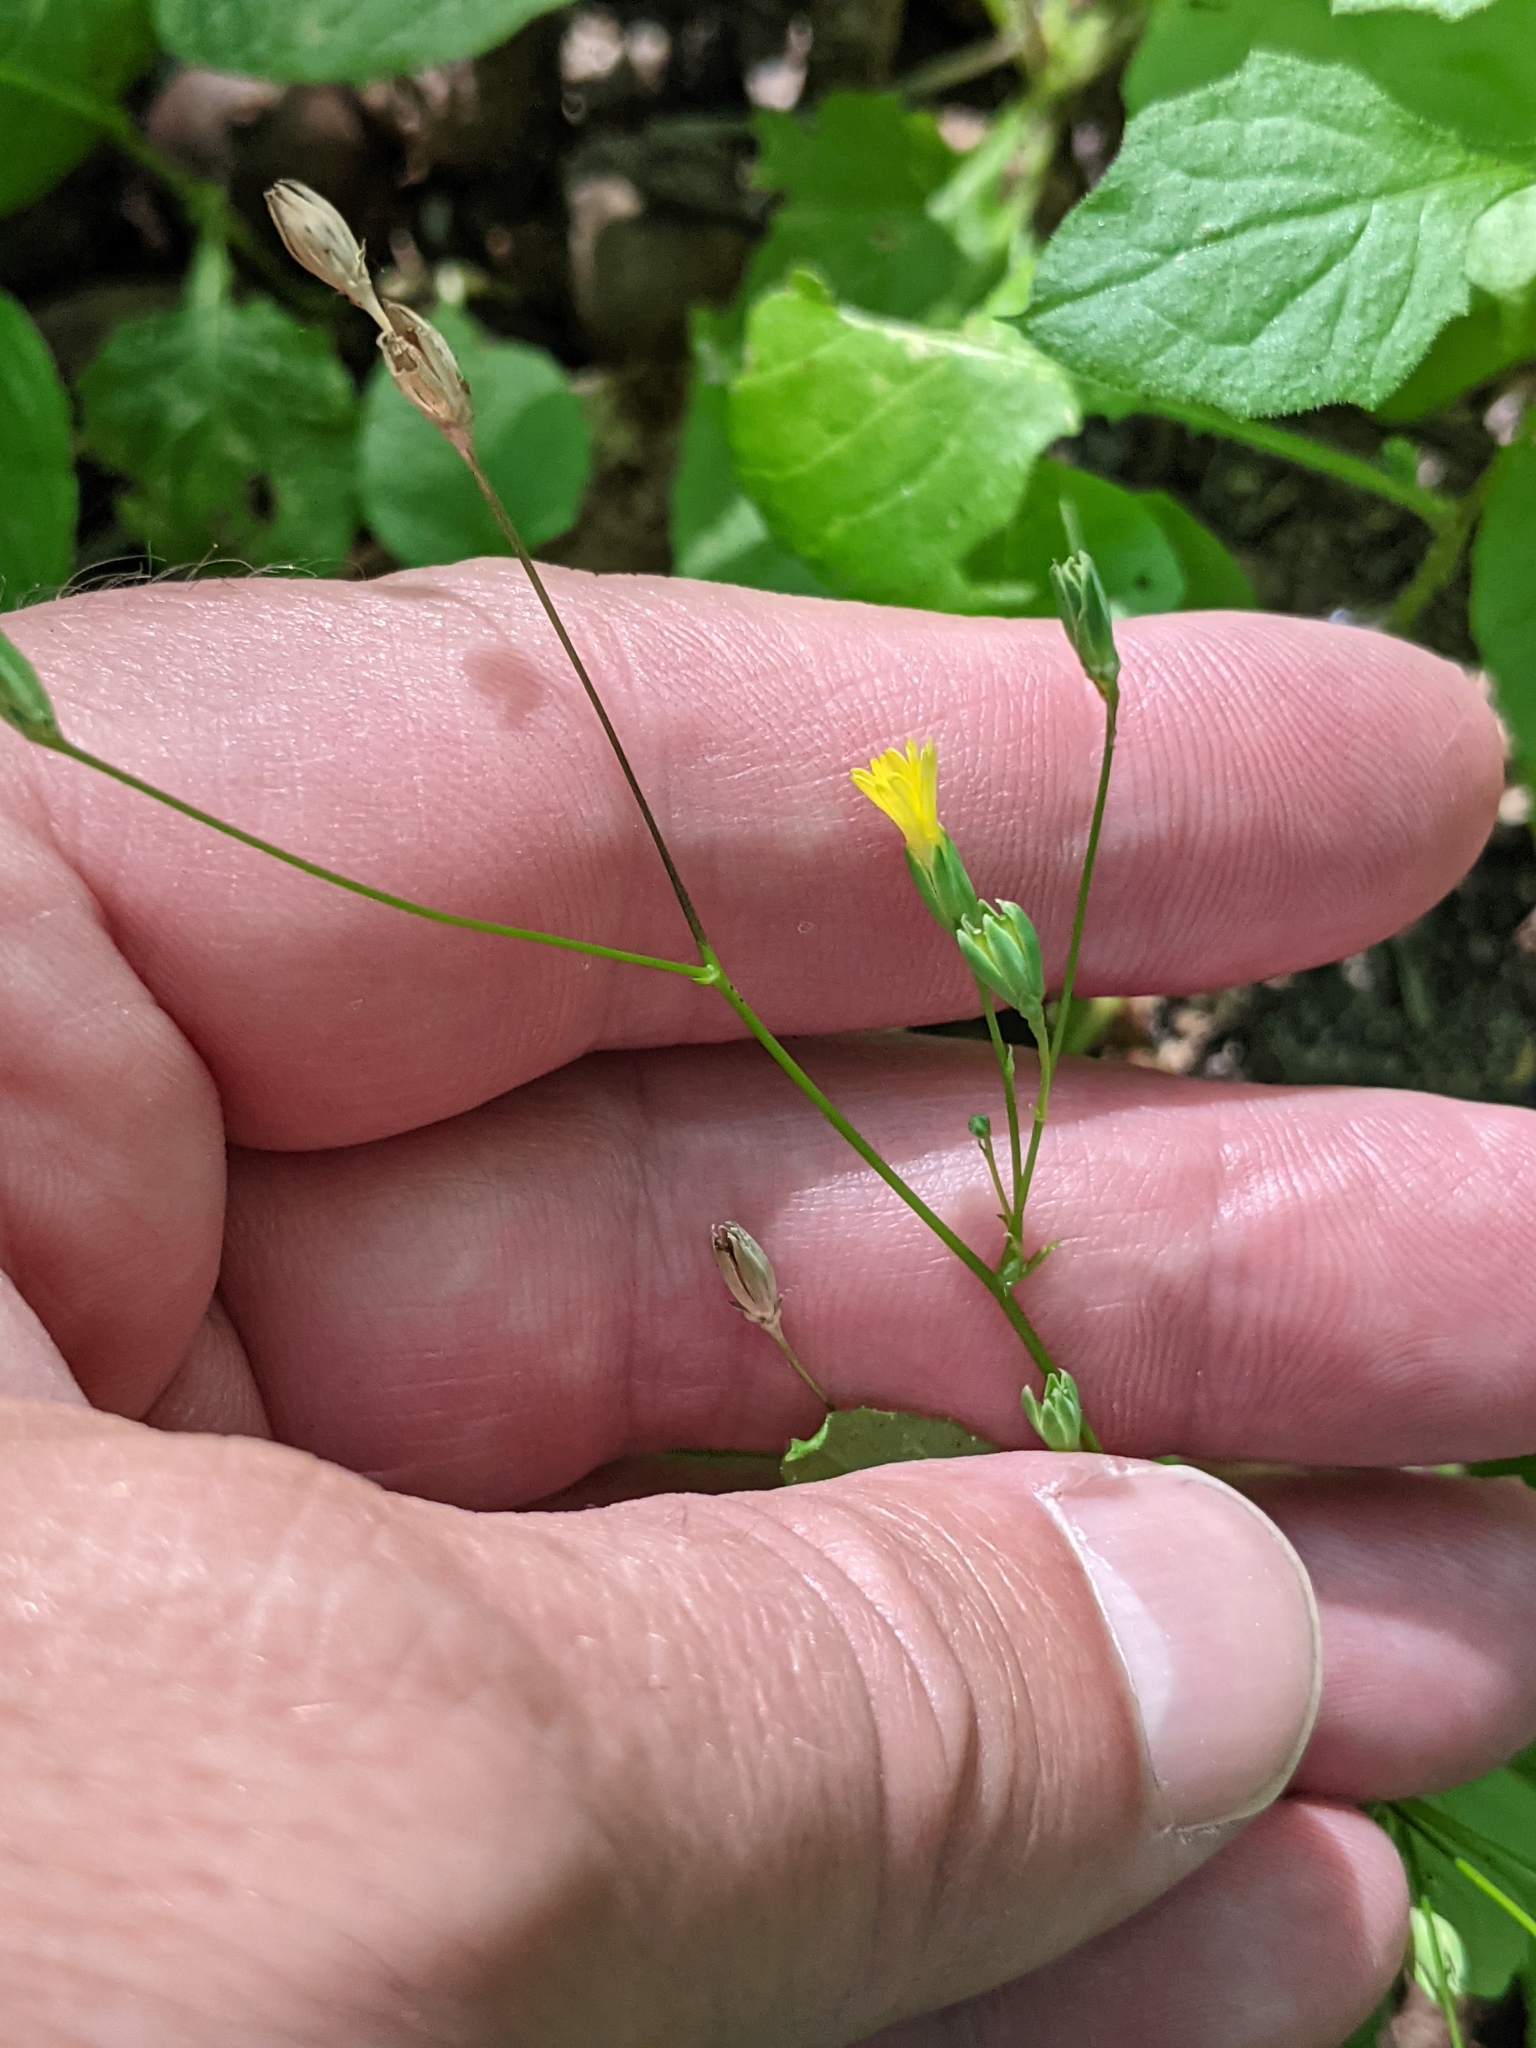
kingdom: Plantae
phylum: Tracheophyta
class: Magnoliopsida
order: Asterales
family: Asteraceae
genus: Lapsana
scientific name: Lapsana communis
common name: Nipplewort
